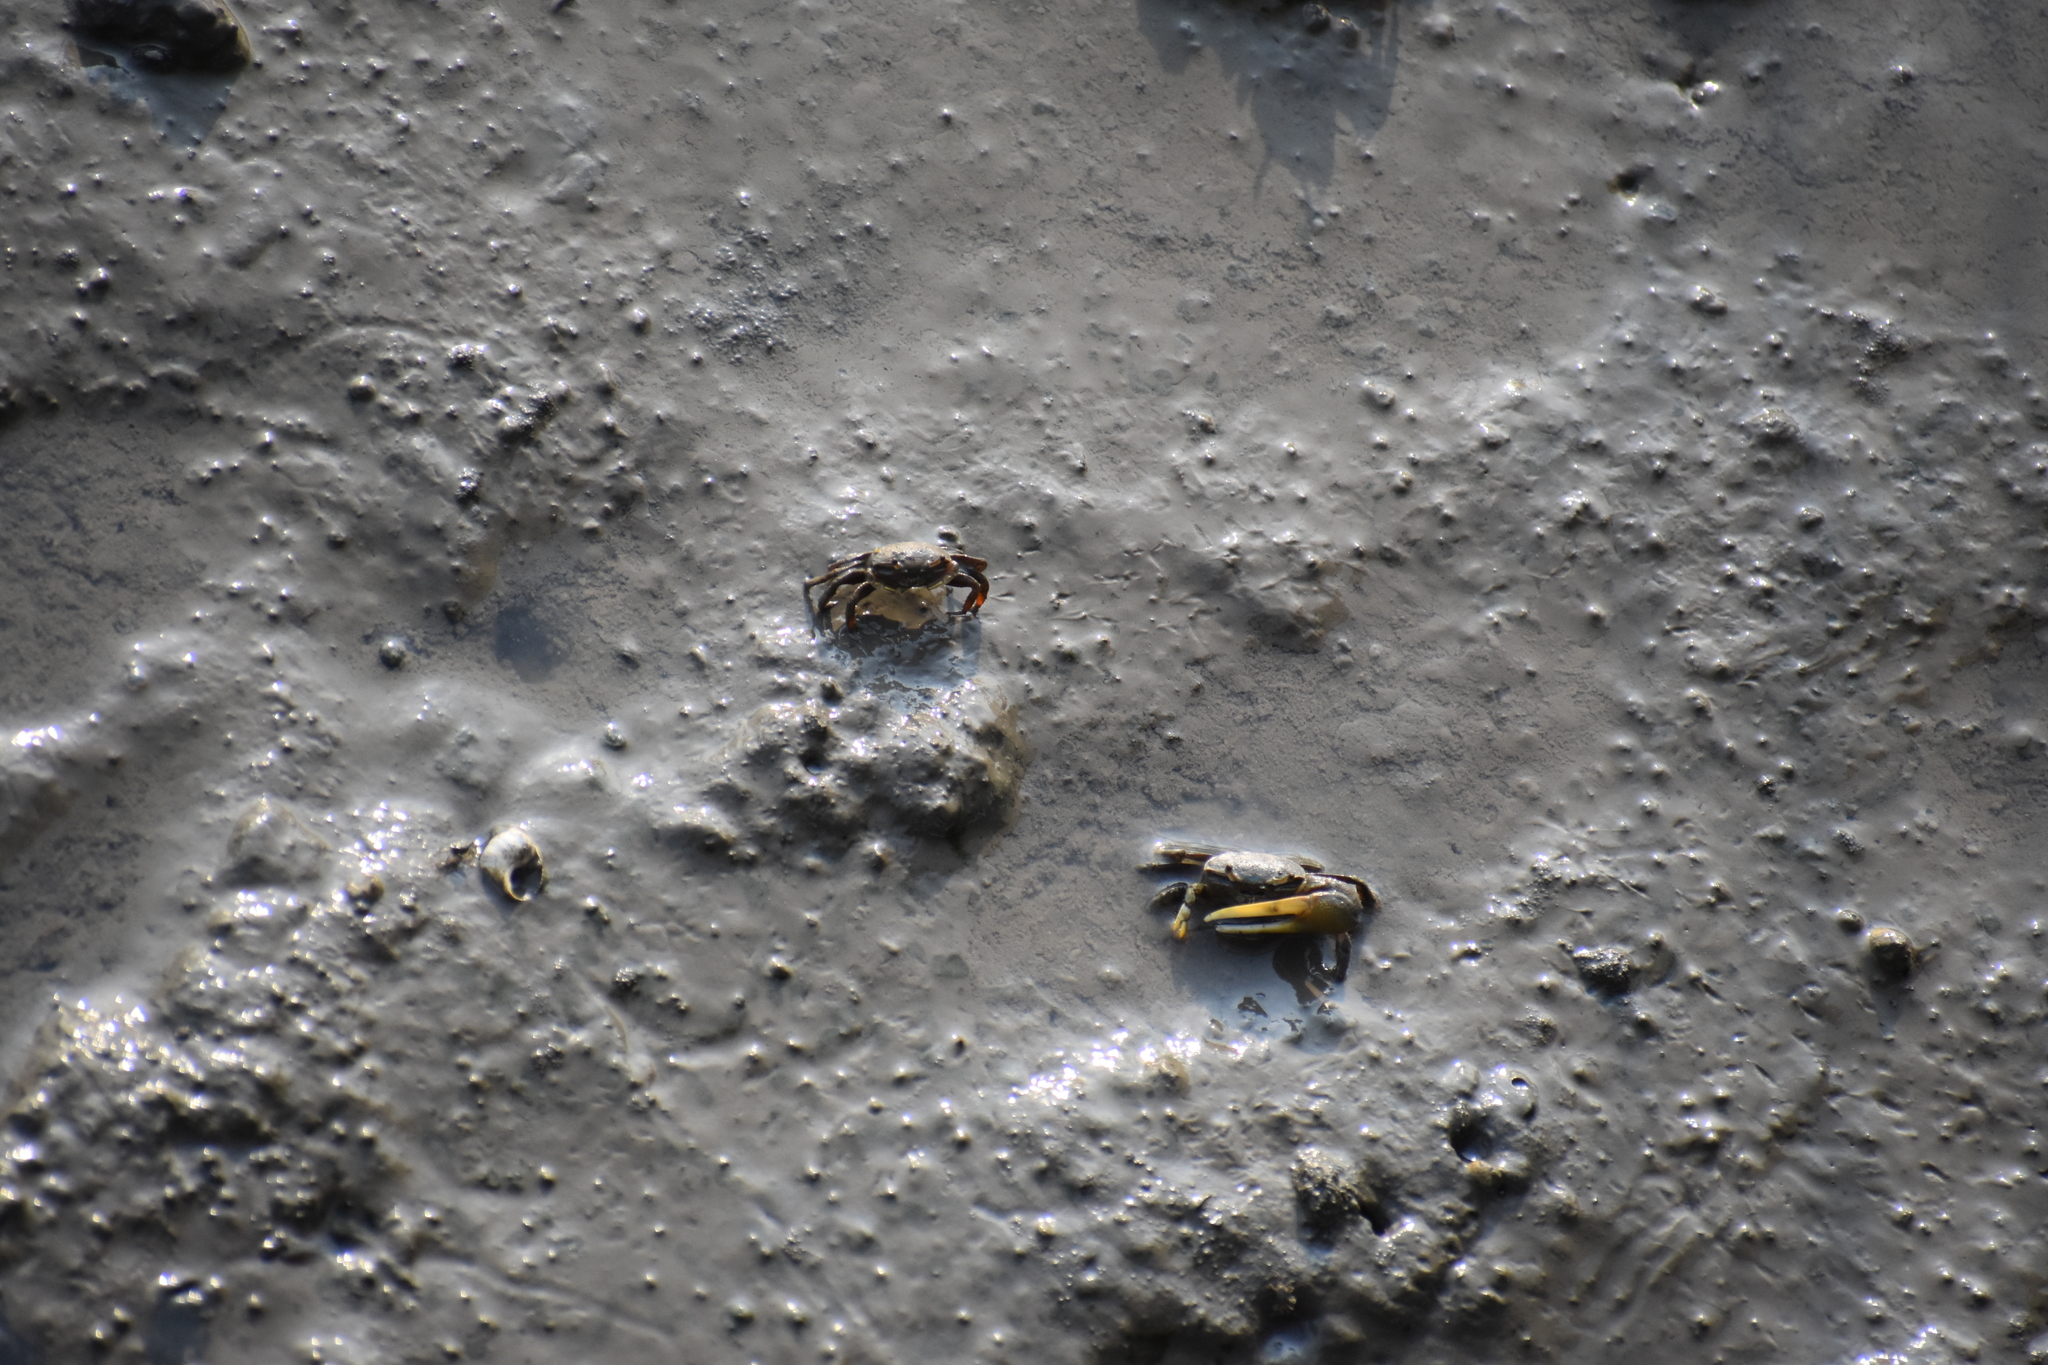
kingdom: Animalia
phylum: Arthropoda
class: Malacostraca
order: Decapoda
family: Ocypodidae
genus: Leptuca
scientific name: Leptuca pugilator
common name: Atlantic sand fiddler crab
